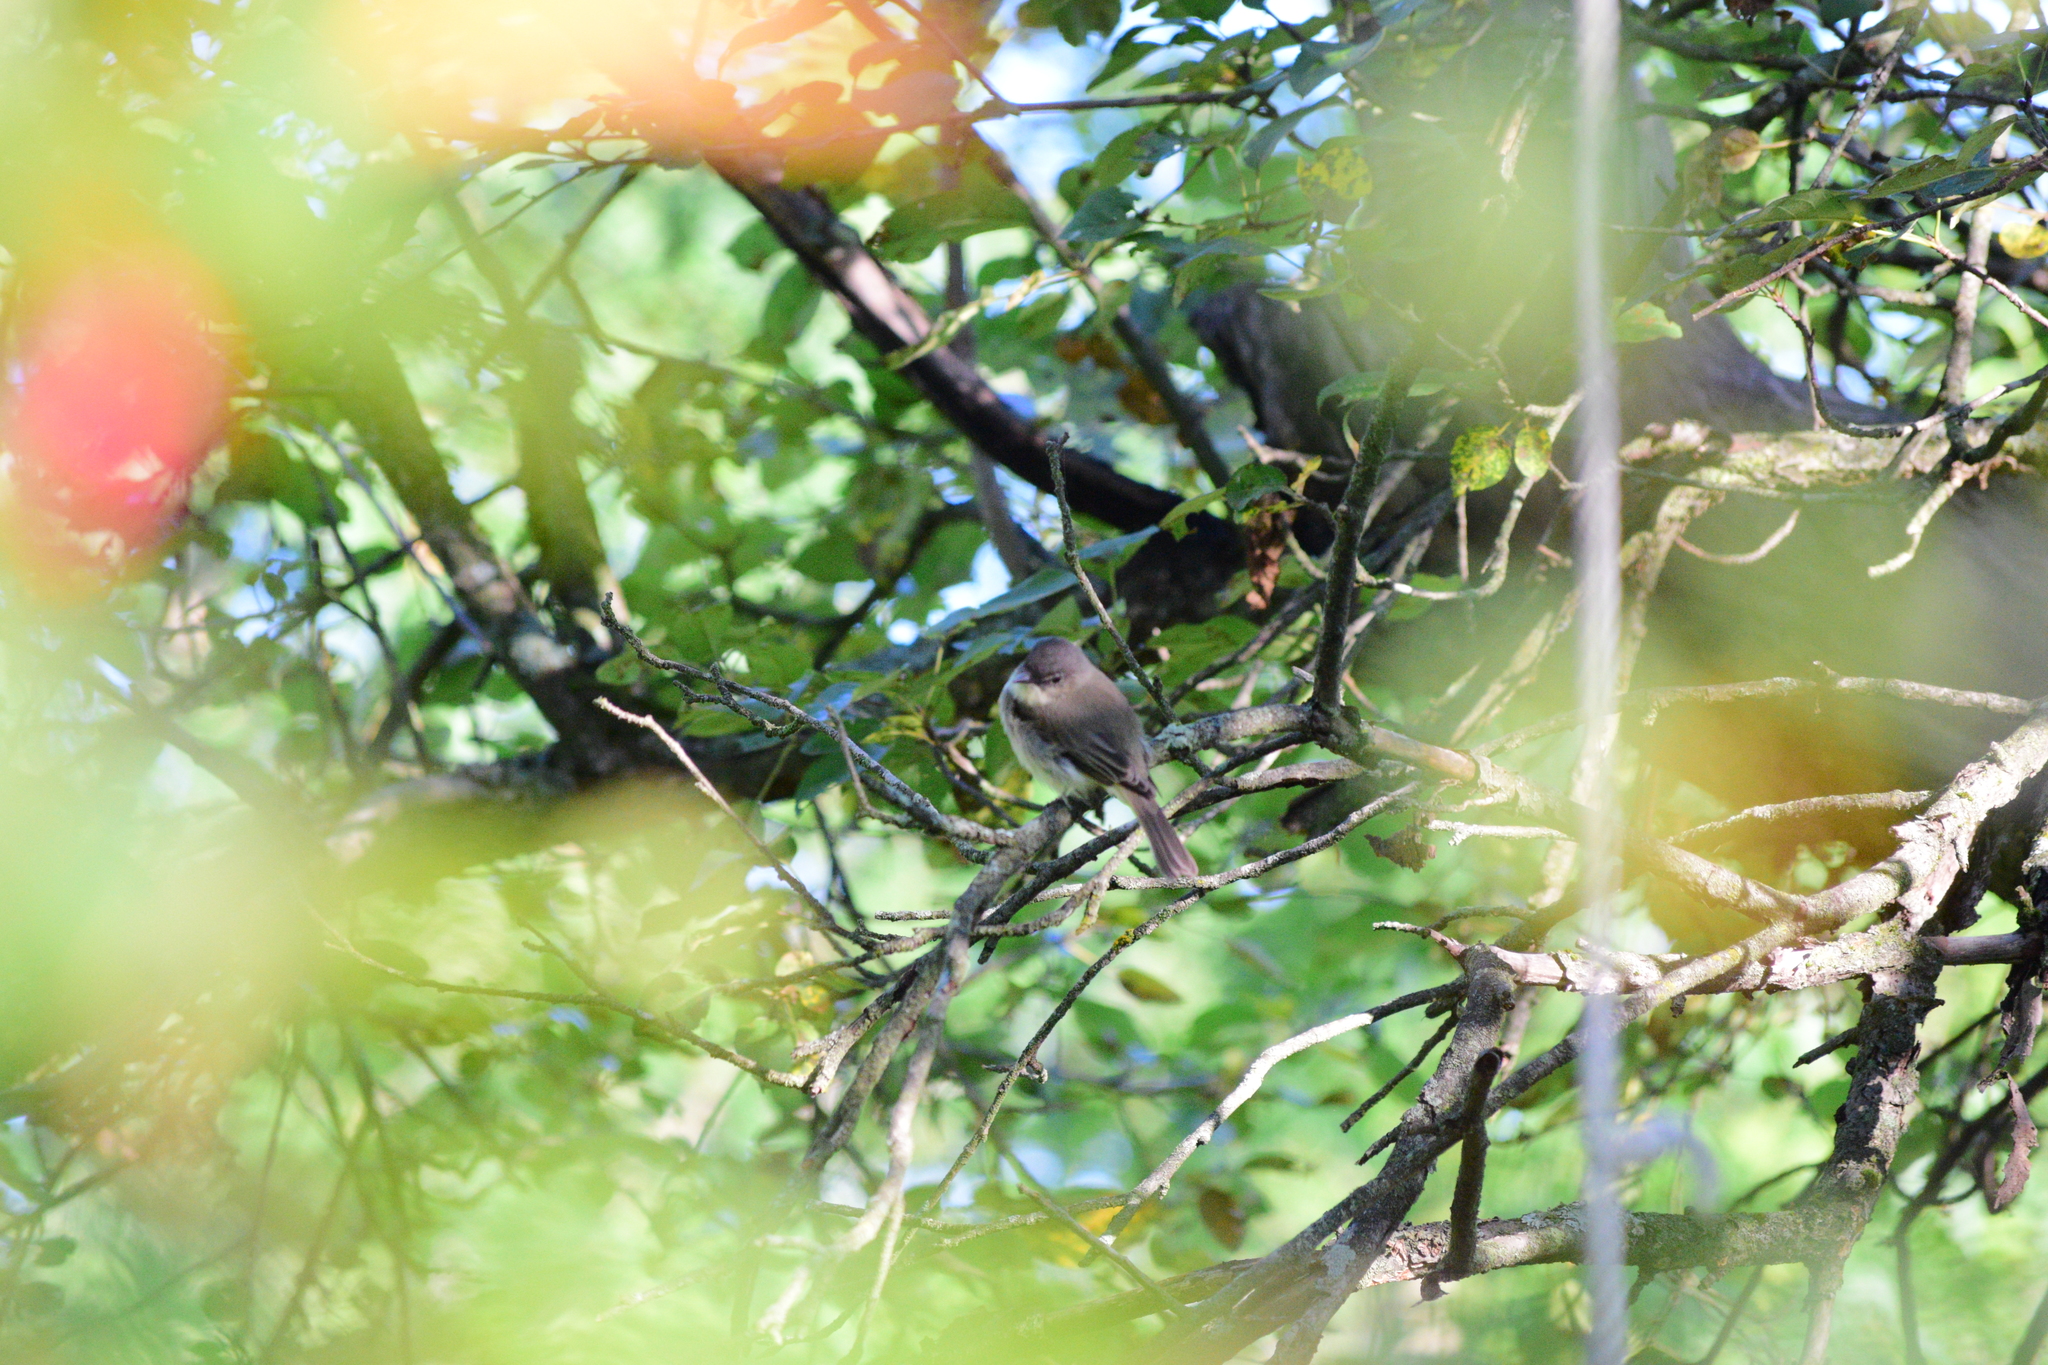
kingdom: Animalia
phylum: Chordata
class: Aves
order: Passeriformes
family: Tyrannidae
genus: Sayornis
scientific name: Sayornis phoebe
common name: Eastern phoebe
